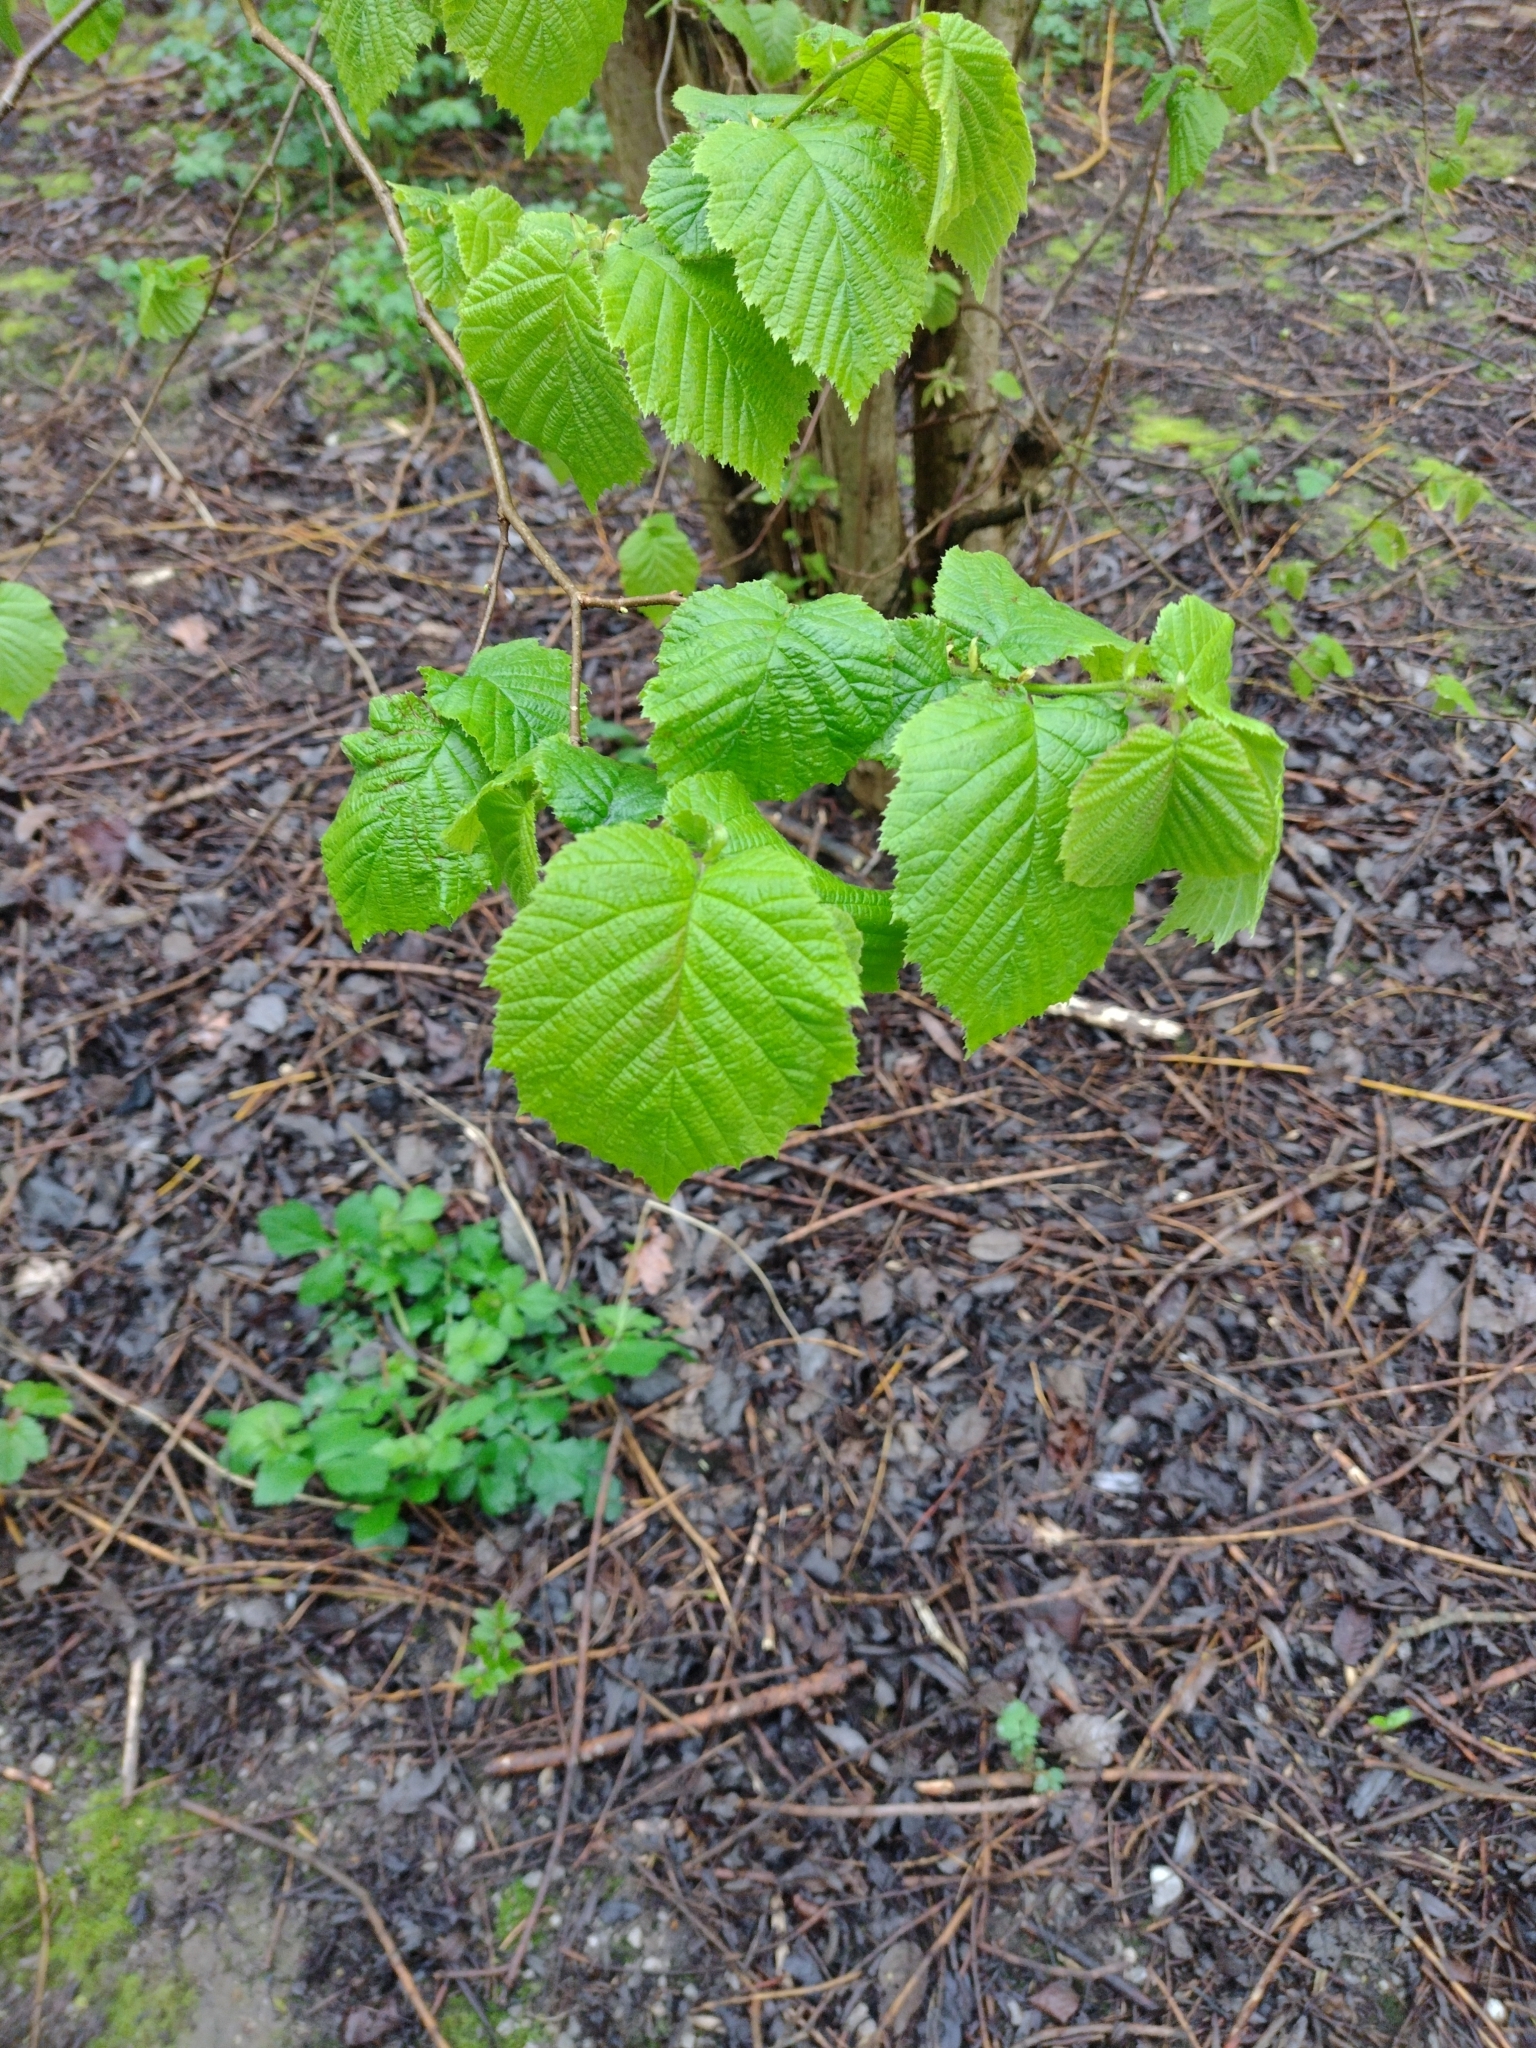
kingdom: Plantae
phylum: Tracheophyta
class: Magnoliopsida
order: Fagales
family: Betulaceae
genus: Corylus
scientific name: Corylus avellana
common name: European hazel
